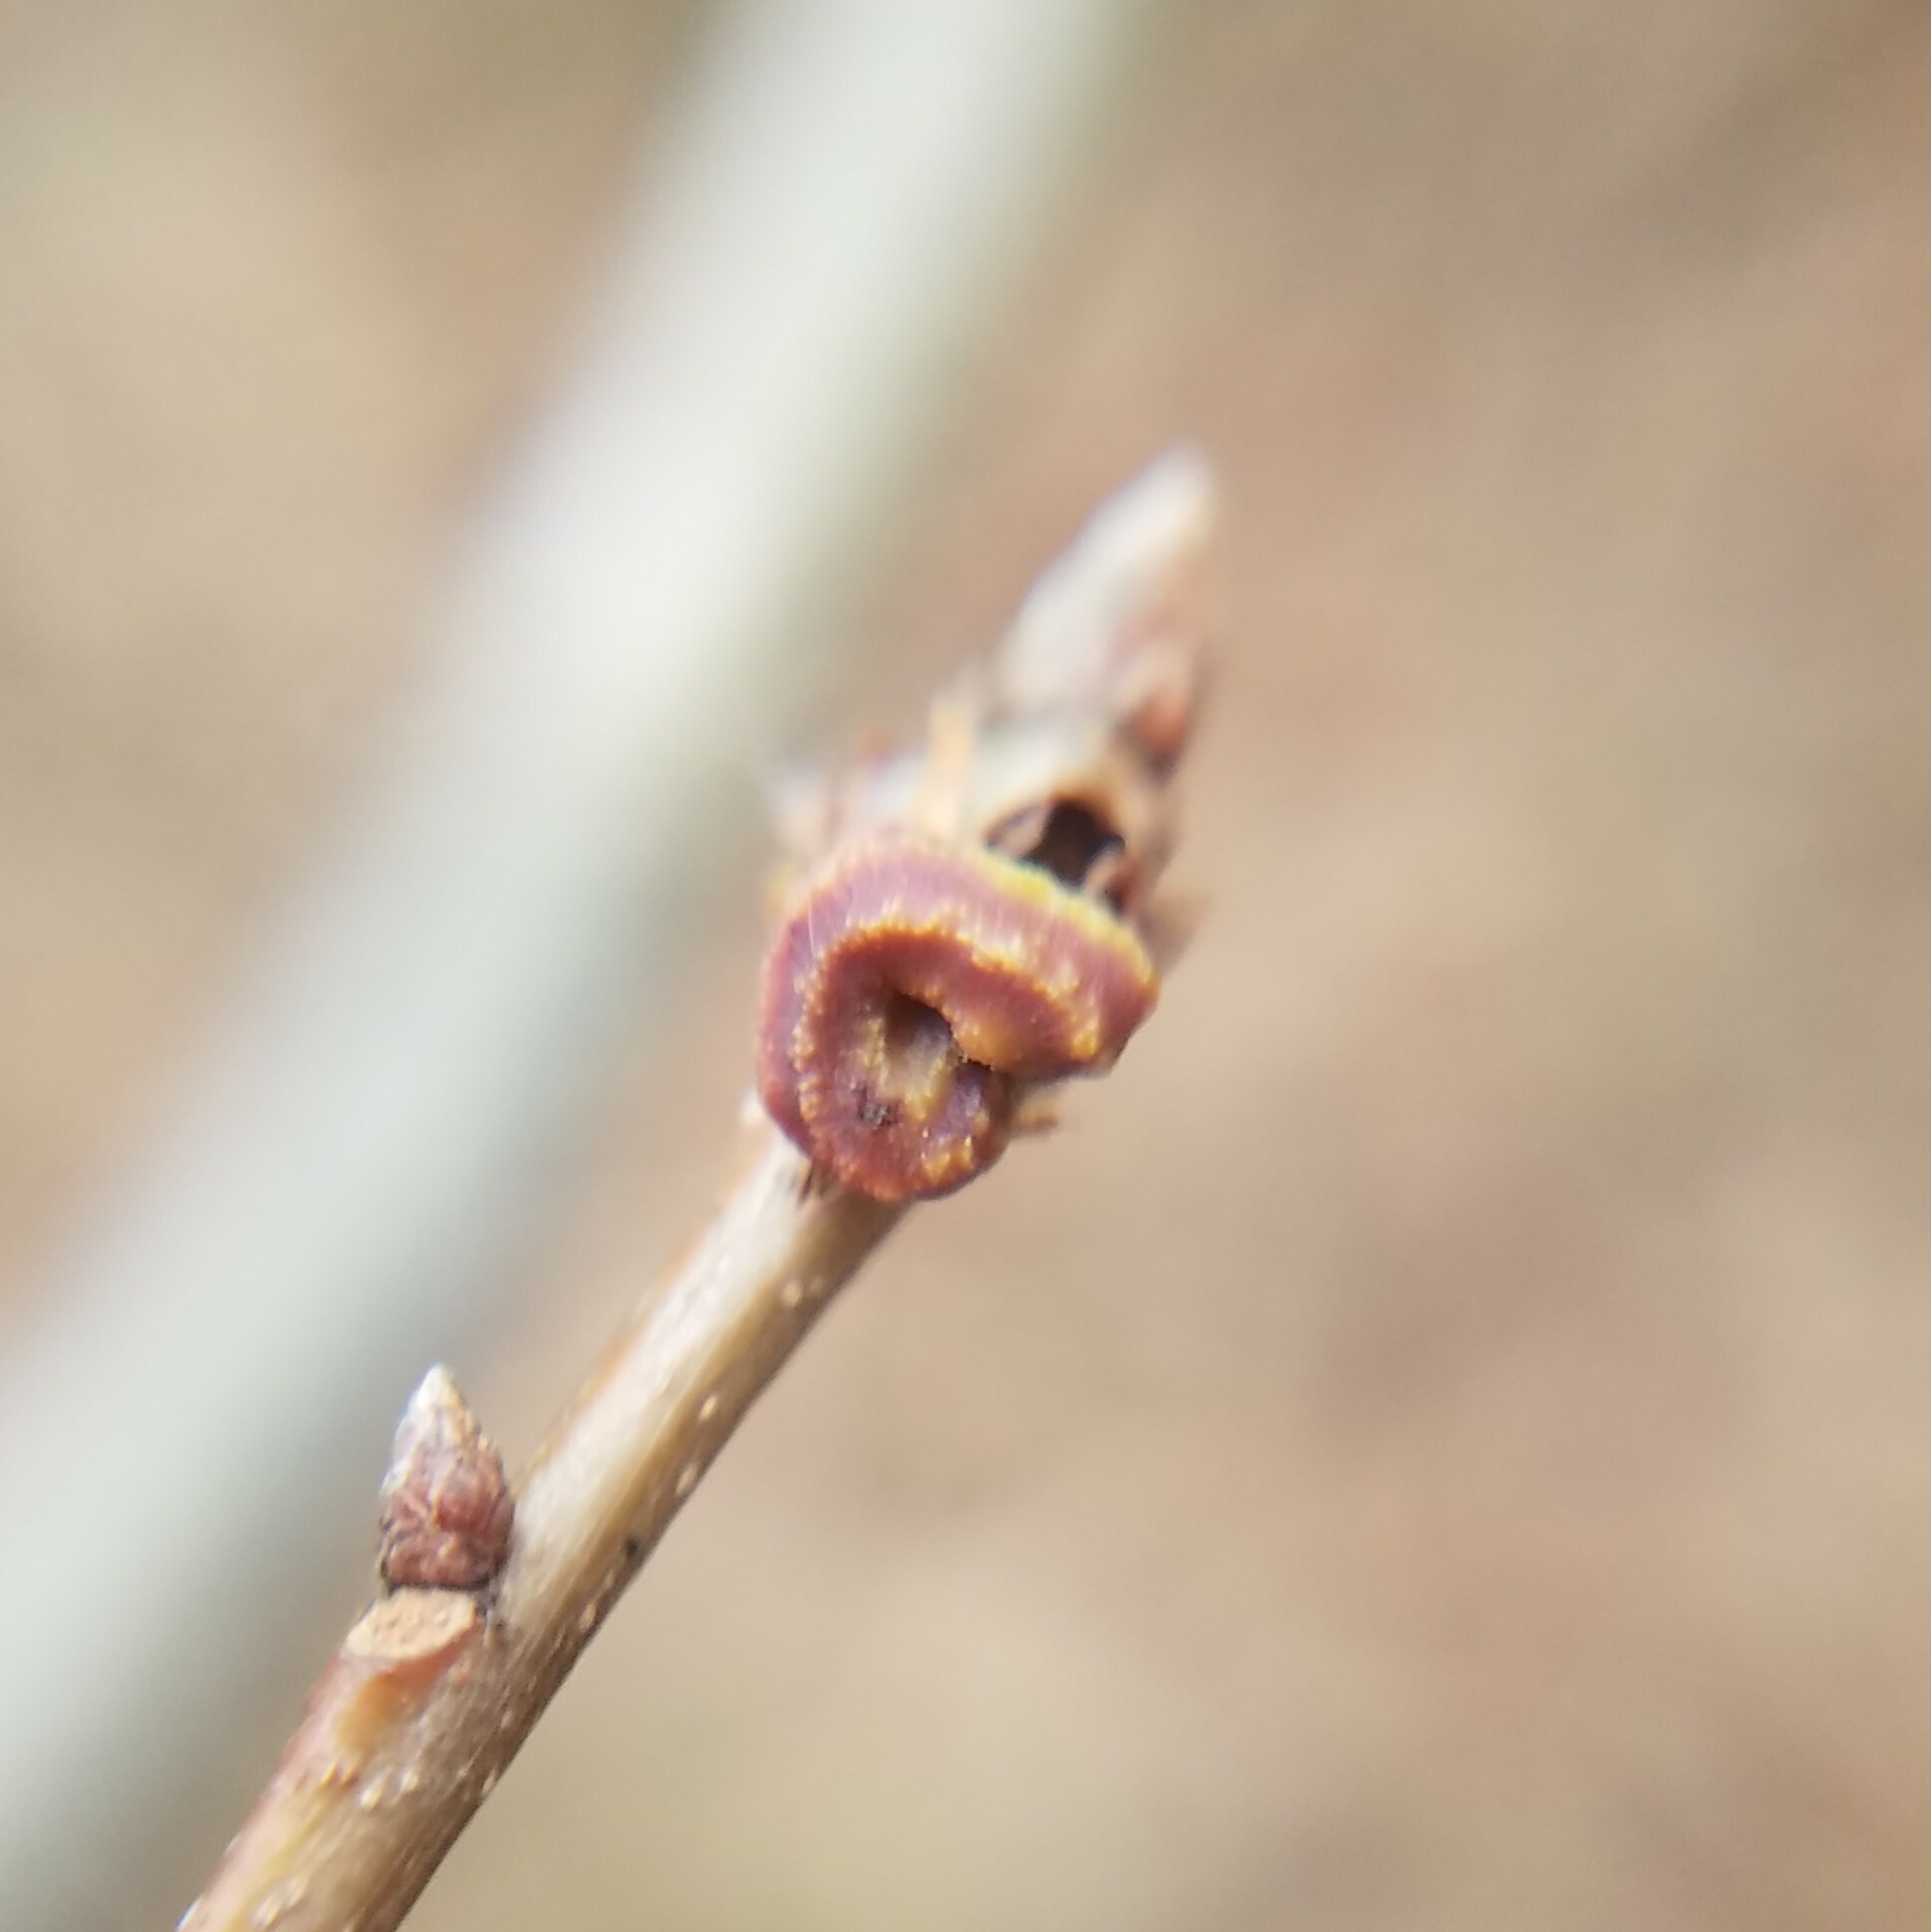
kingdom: Animalia
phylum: Arthropoda
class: Insecta
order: Hymenoptera
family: Cynipidae
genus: Kokkocynips
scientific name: Kokkocynips difficilis
